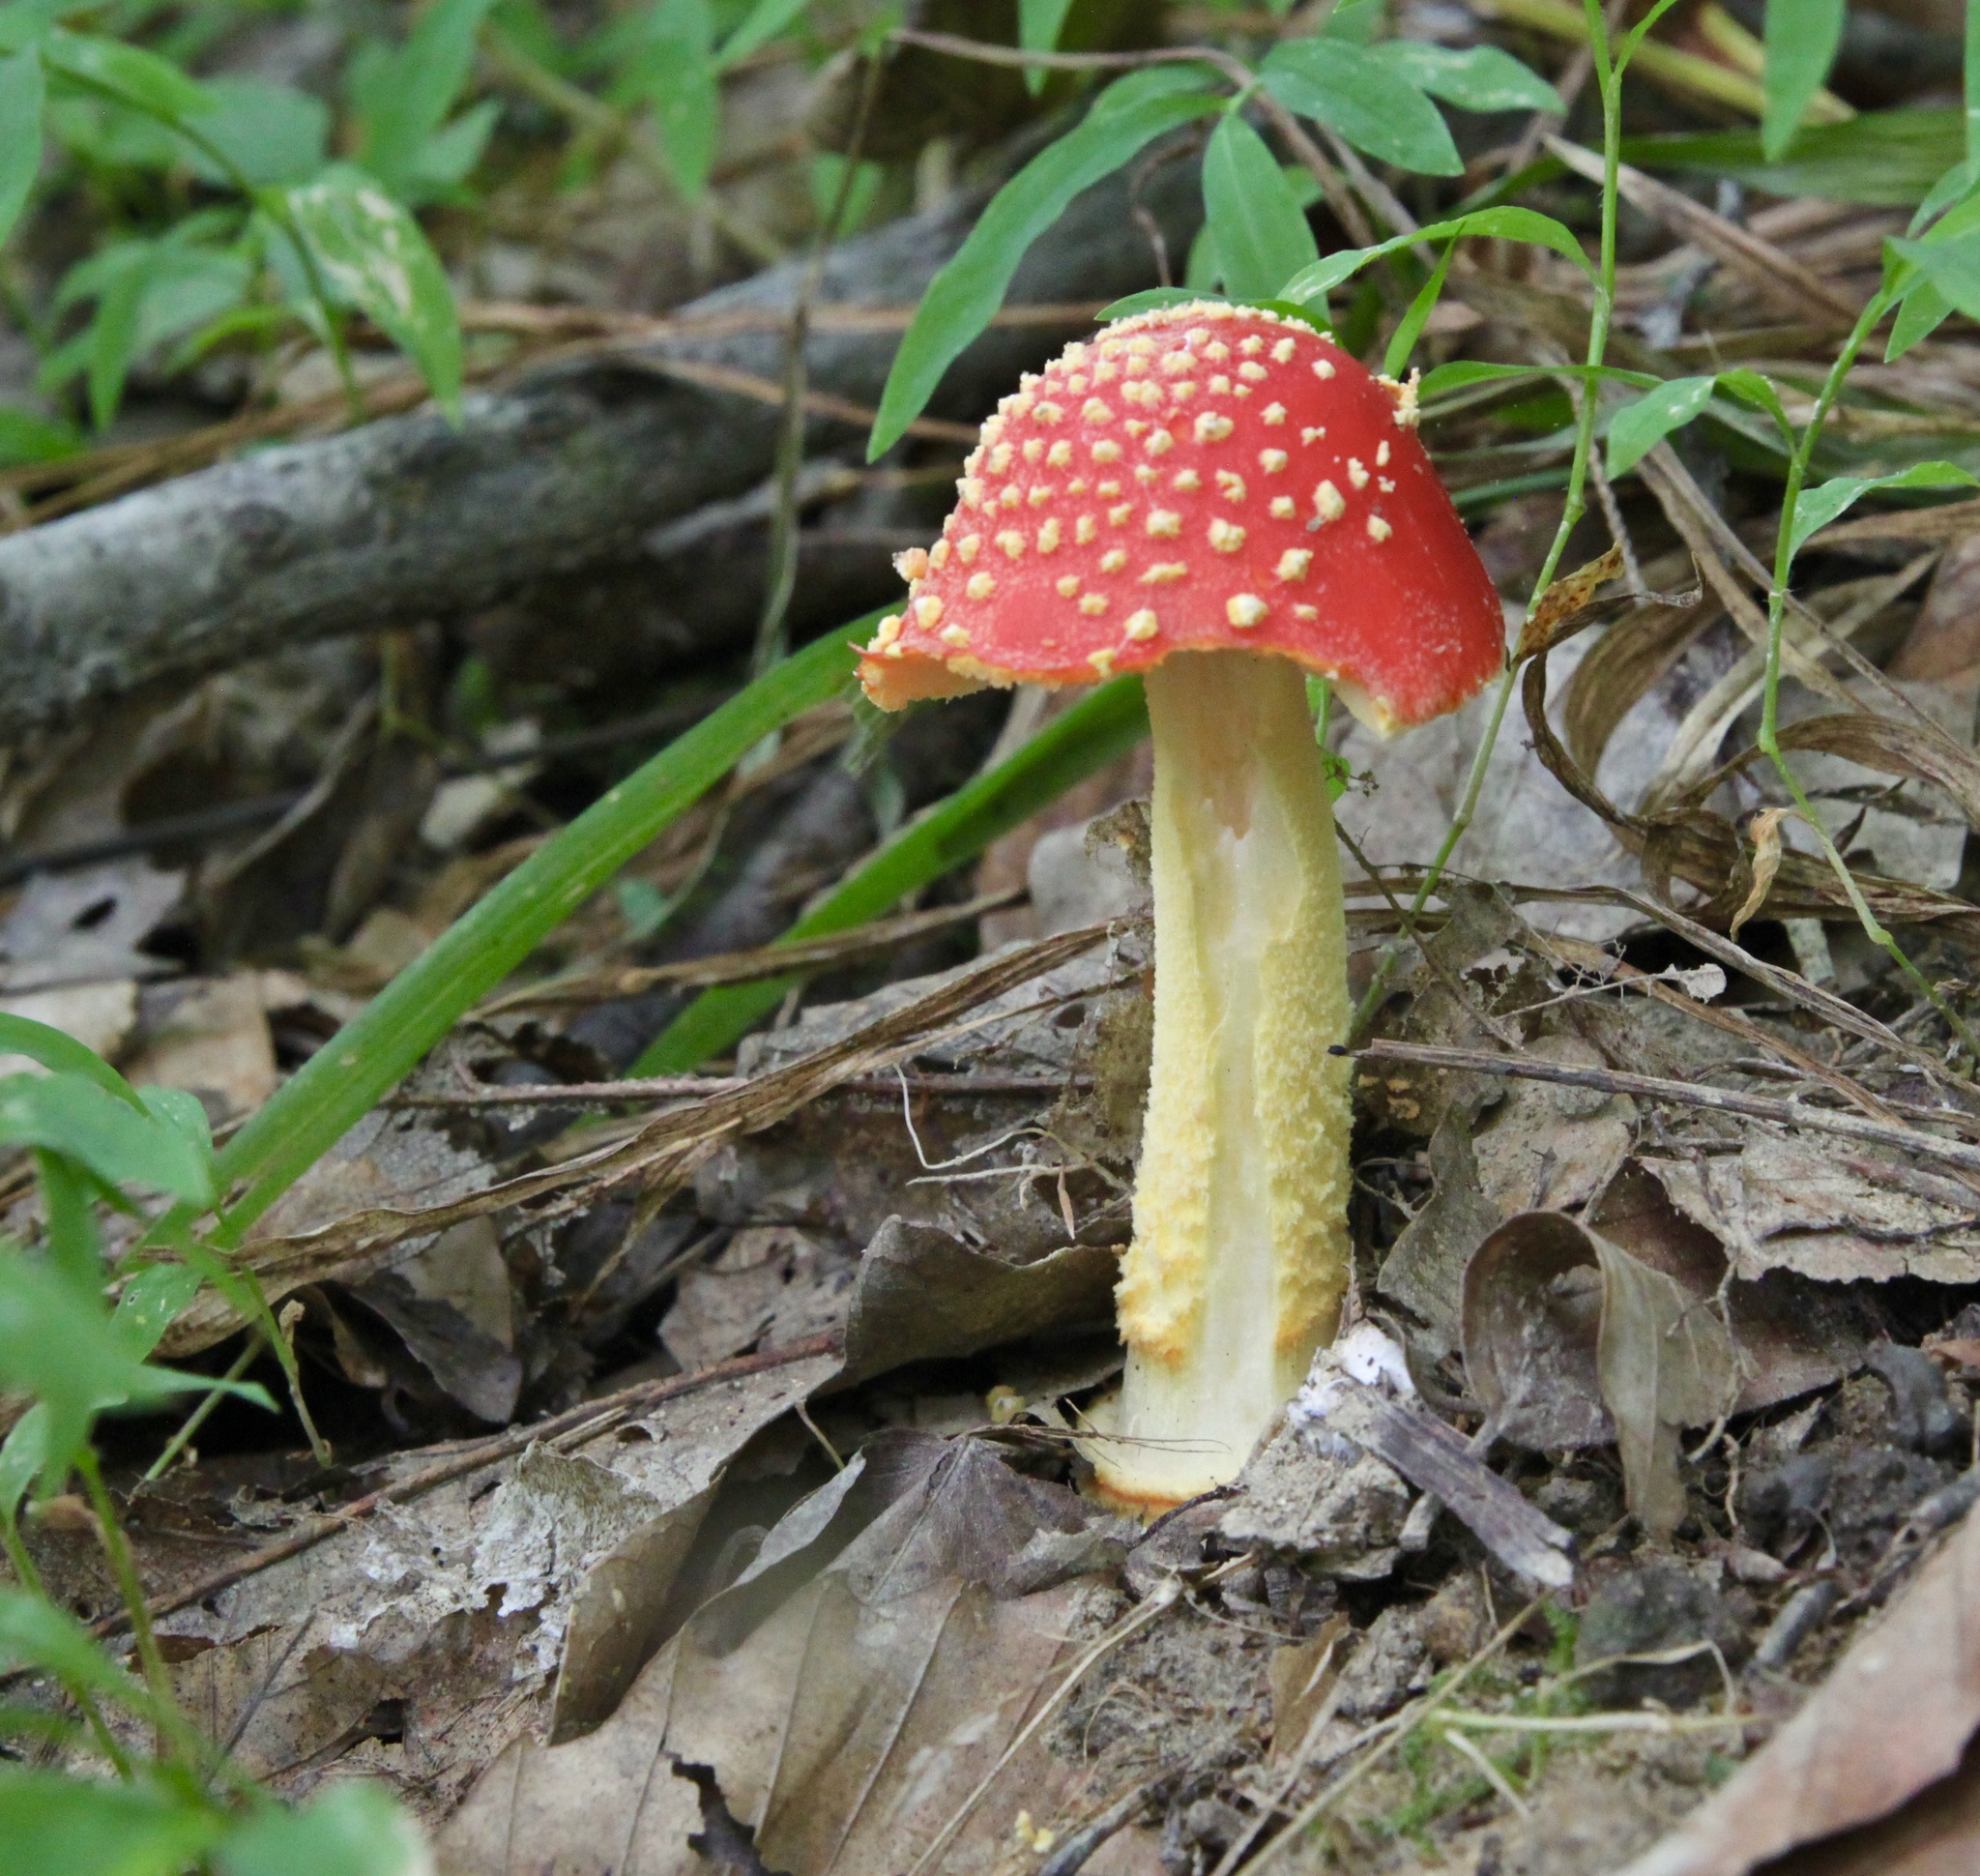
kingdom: Fungi
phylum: Basidiomycota
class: Agaricomycetes
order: Agaricales
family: Amanitaceae
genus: Amanita
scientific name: Amanita parcivolvata
